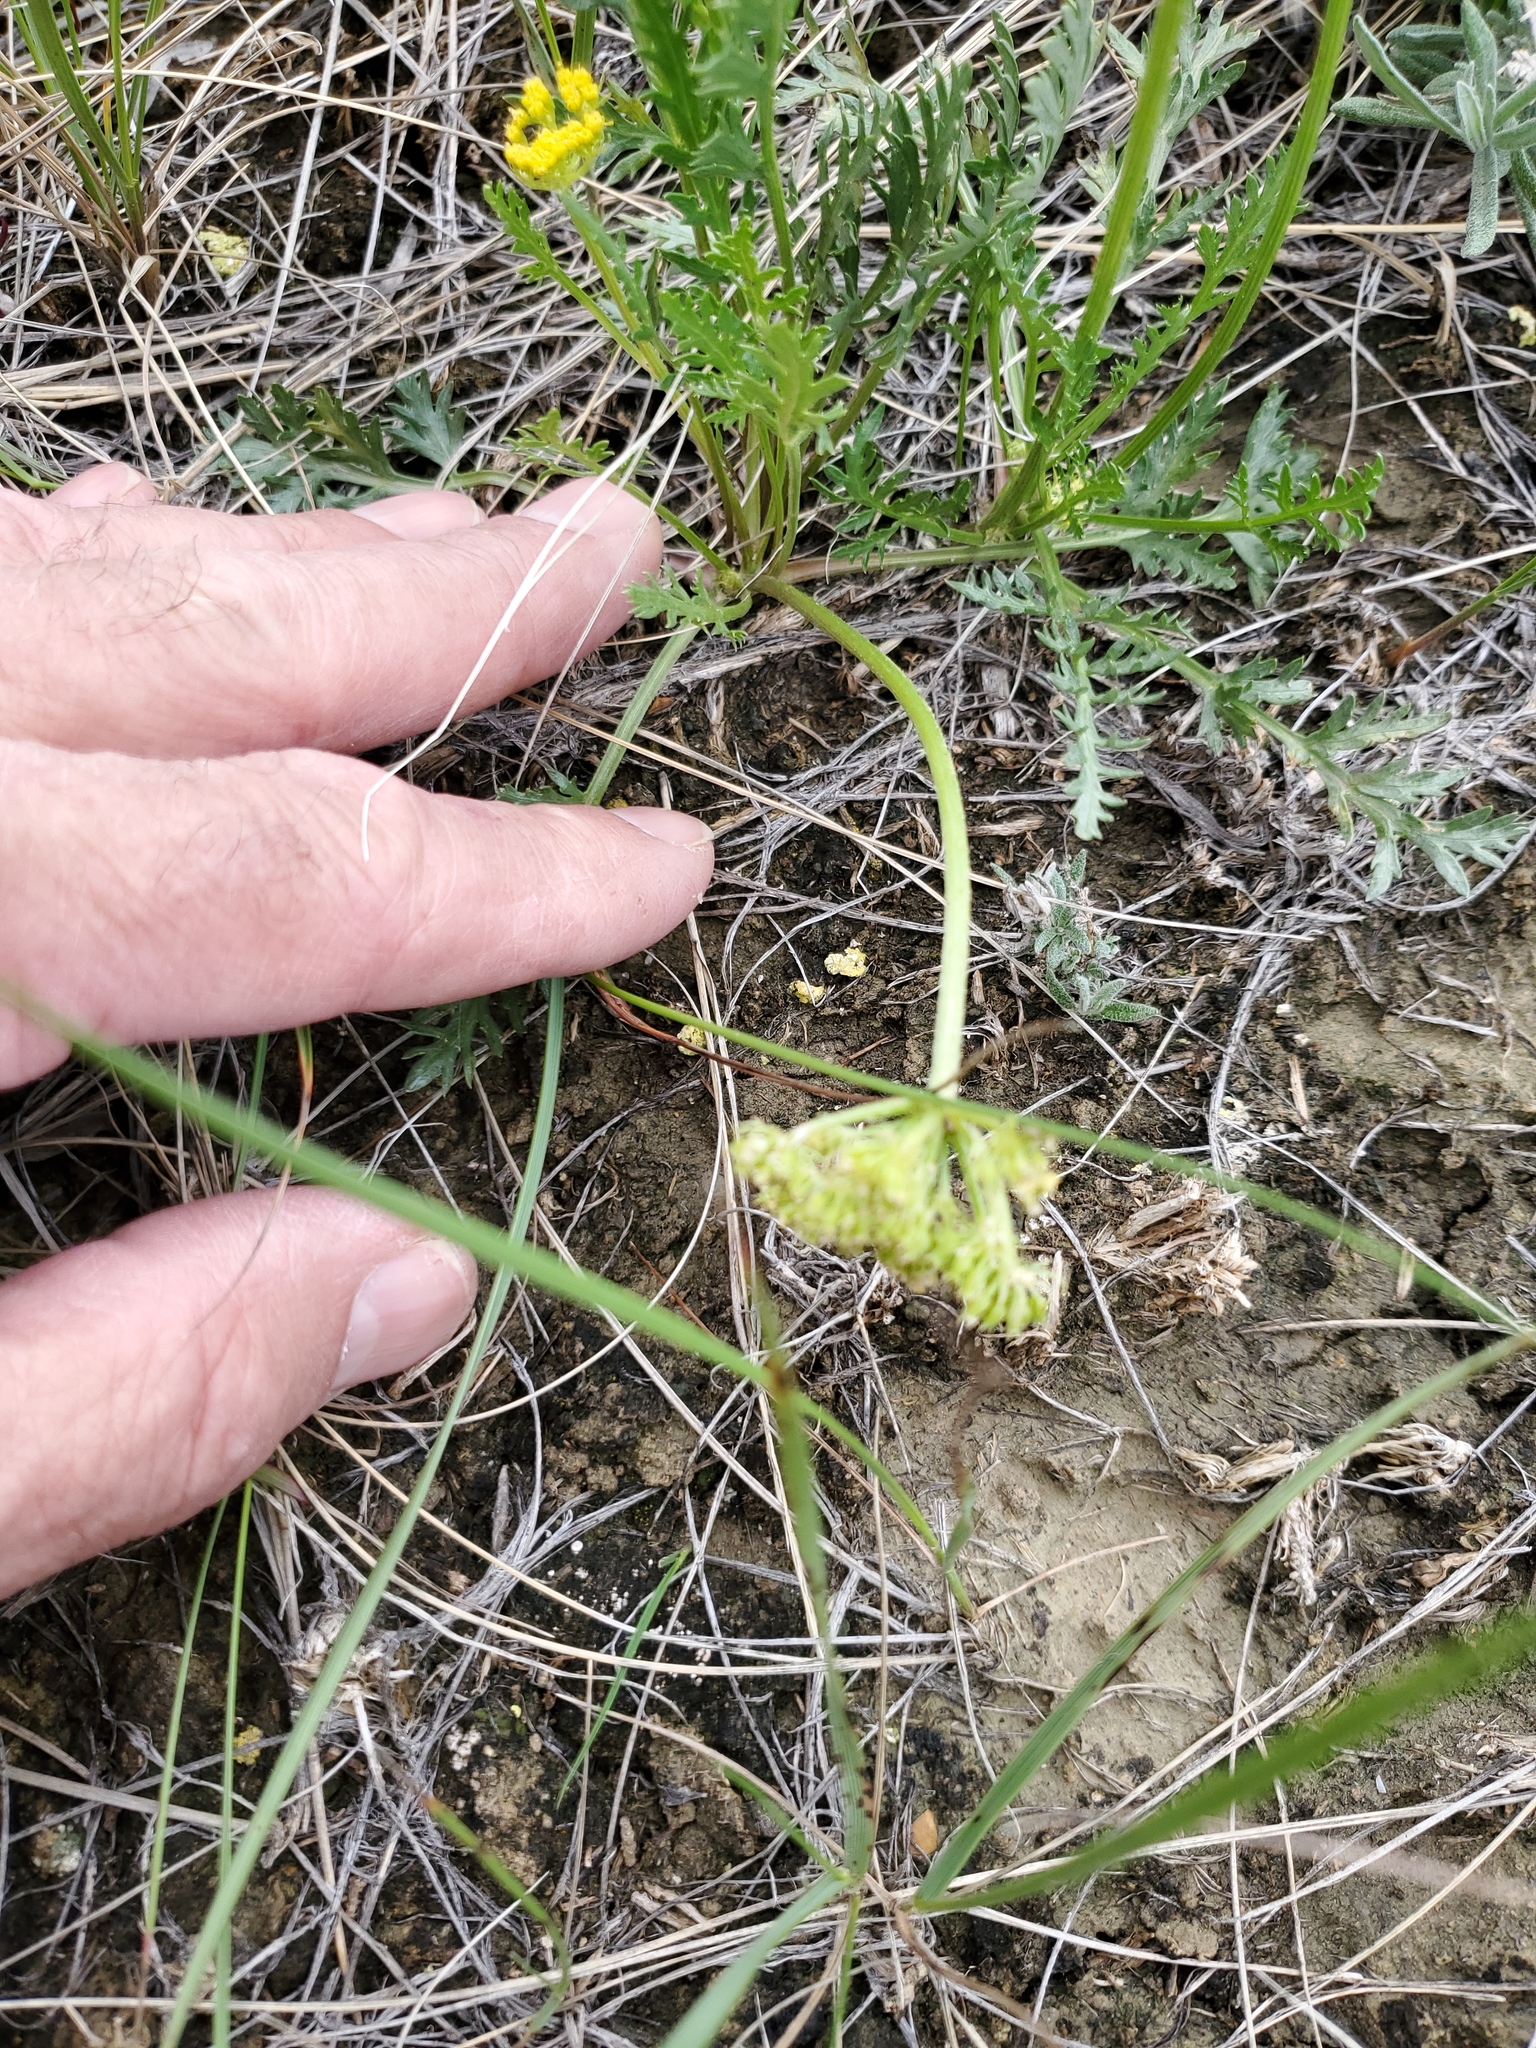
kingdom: Plantae
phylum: Tracheophyta
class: Magnoliopsida
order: Apiales
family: Apiaceae
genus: Musineon
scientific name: Musineon divaricatum
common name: Plains musineon
